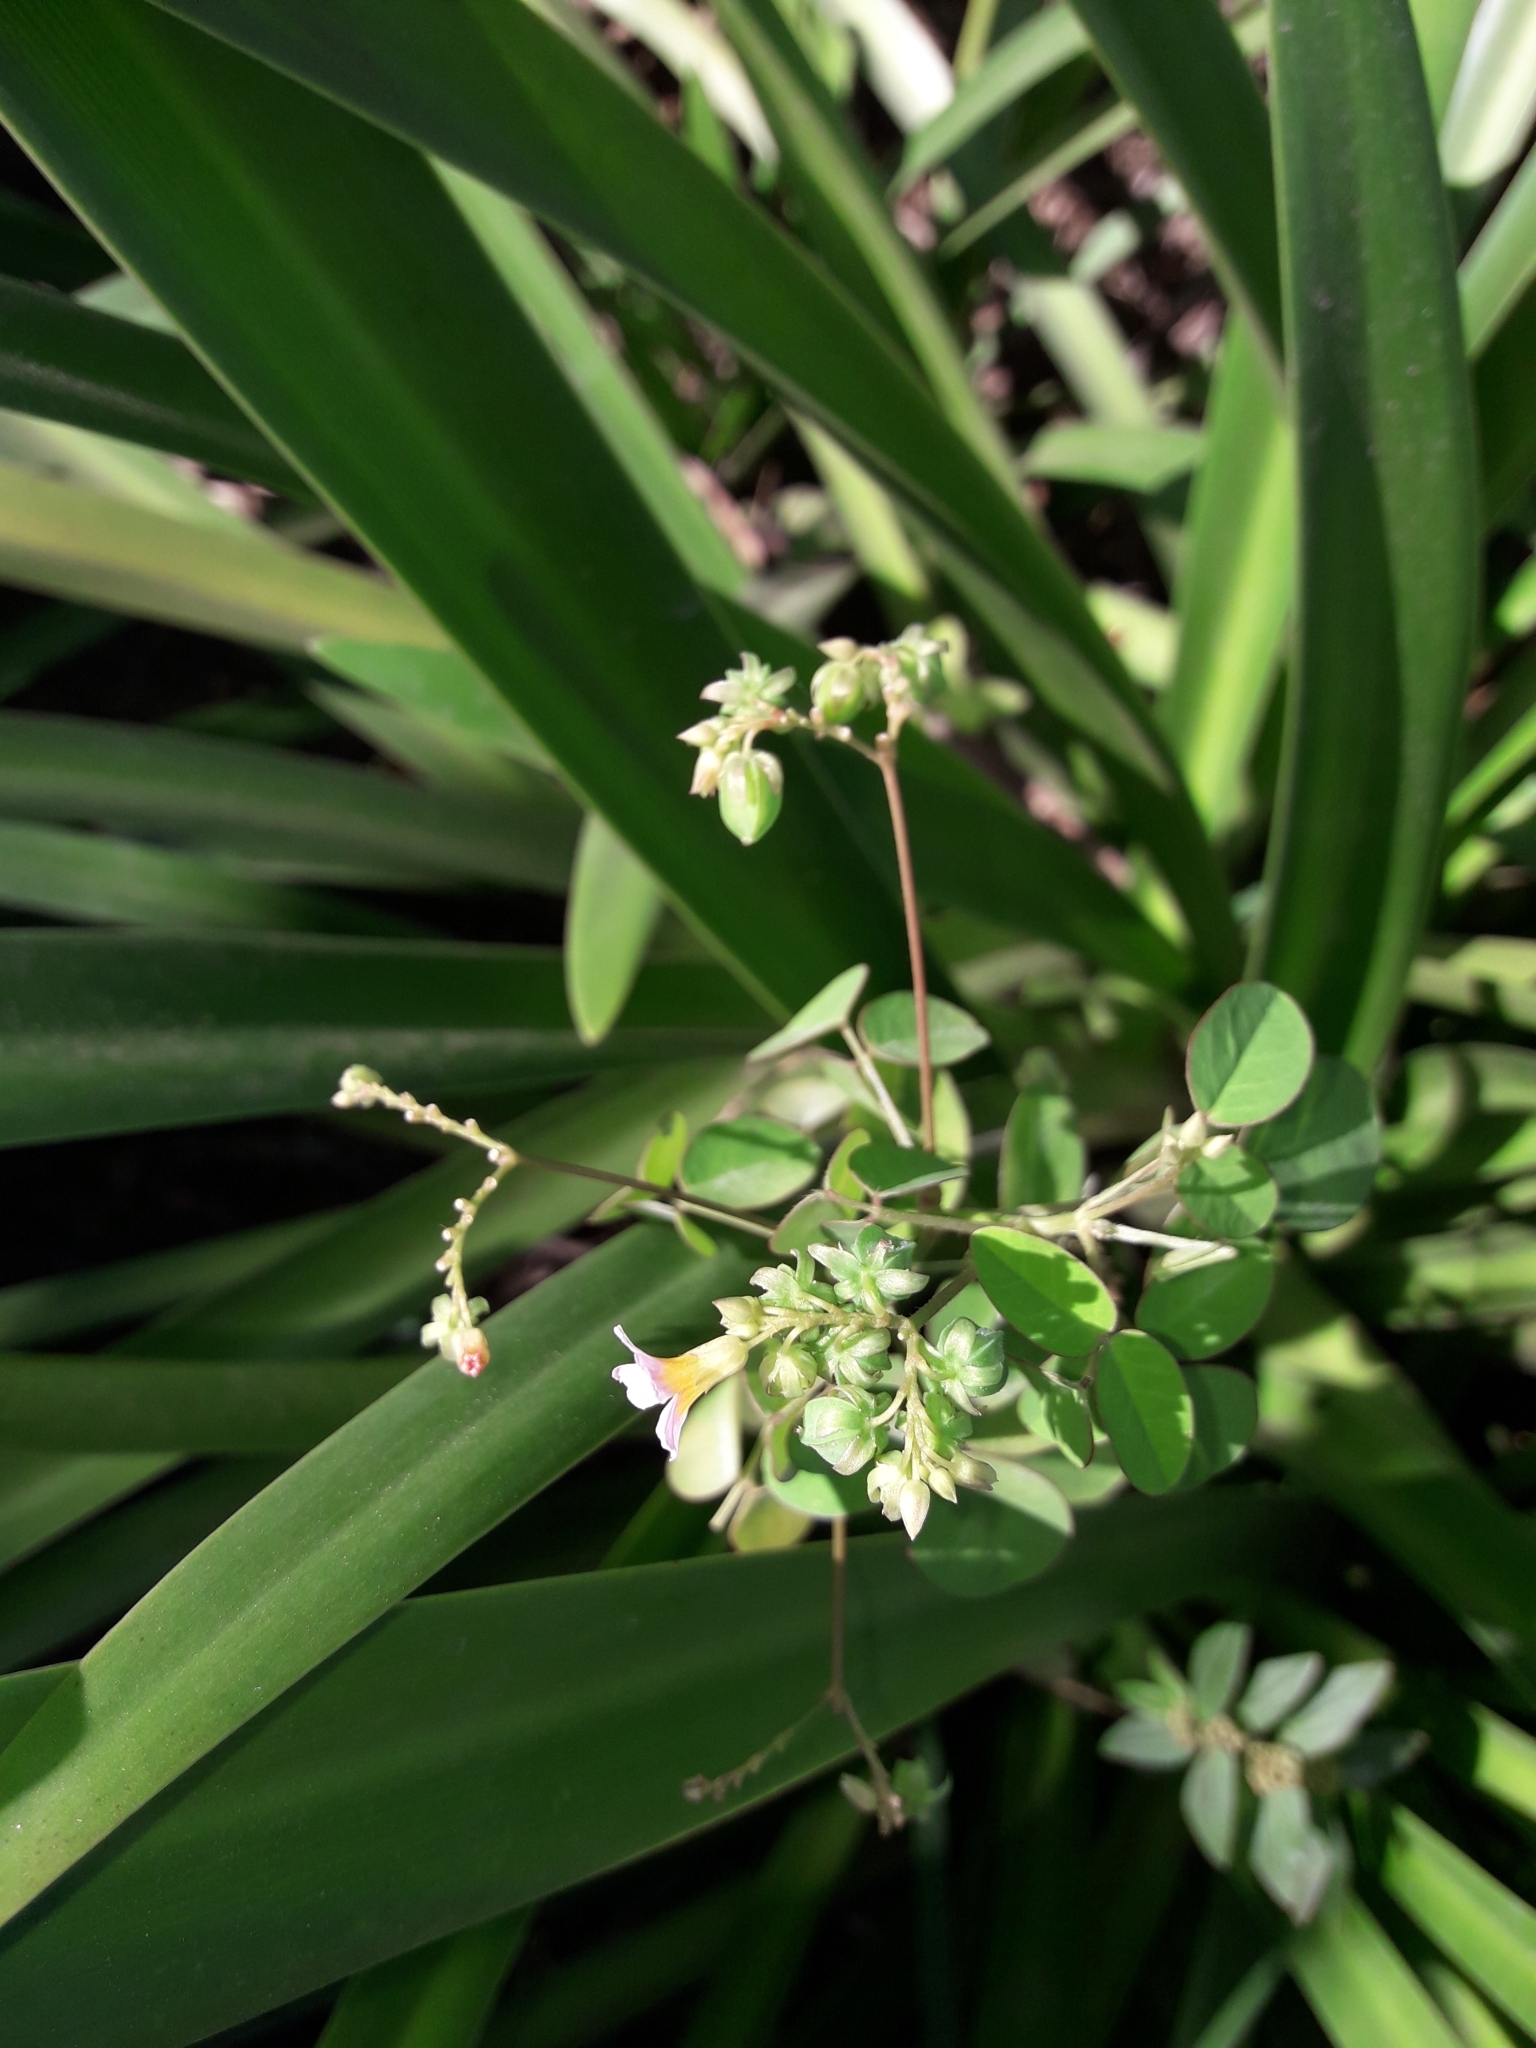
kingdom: Plantae
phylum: Tracheophyta
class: Magnoliopsida
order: Oxalidales
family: Oxalidaceae
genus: Oxalis
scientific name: Oxalis barrelieri
